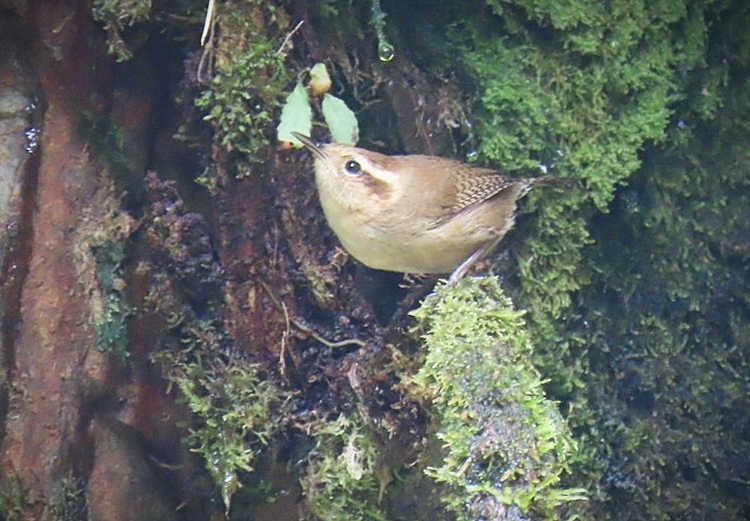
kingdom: Animalia
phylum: Chordata
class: Aves
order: Passeriformes
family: Troglodytidae
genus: Troglodytes
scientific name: Troglodytes solstitialis
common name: Mountain wren
